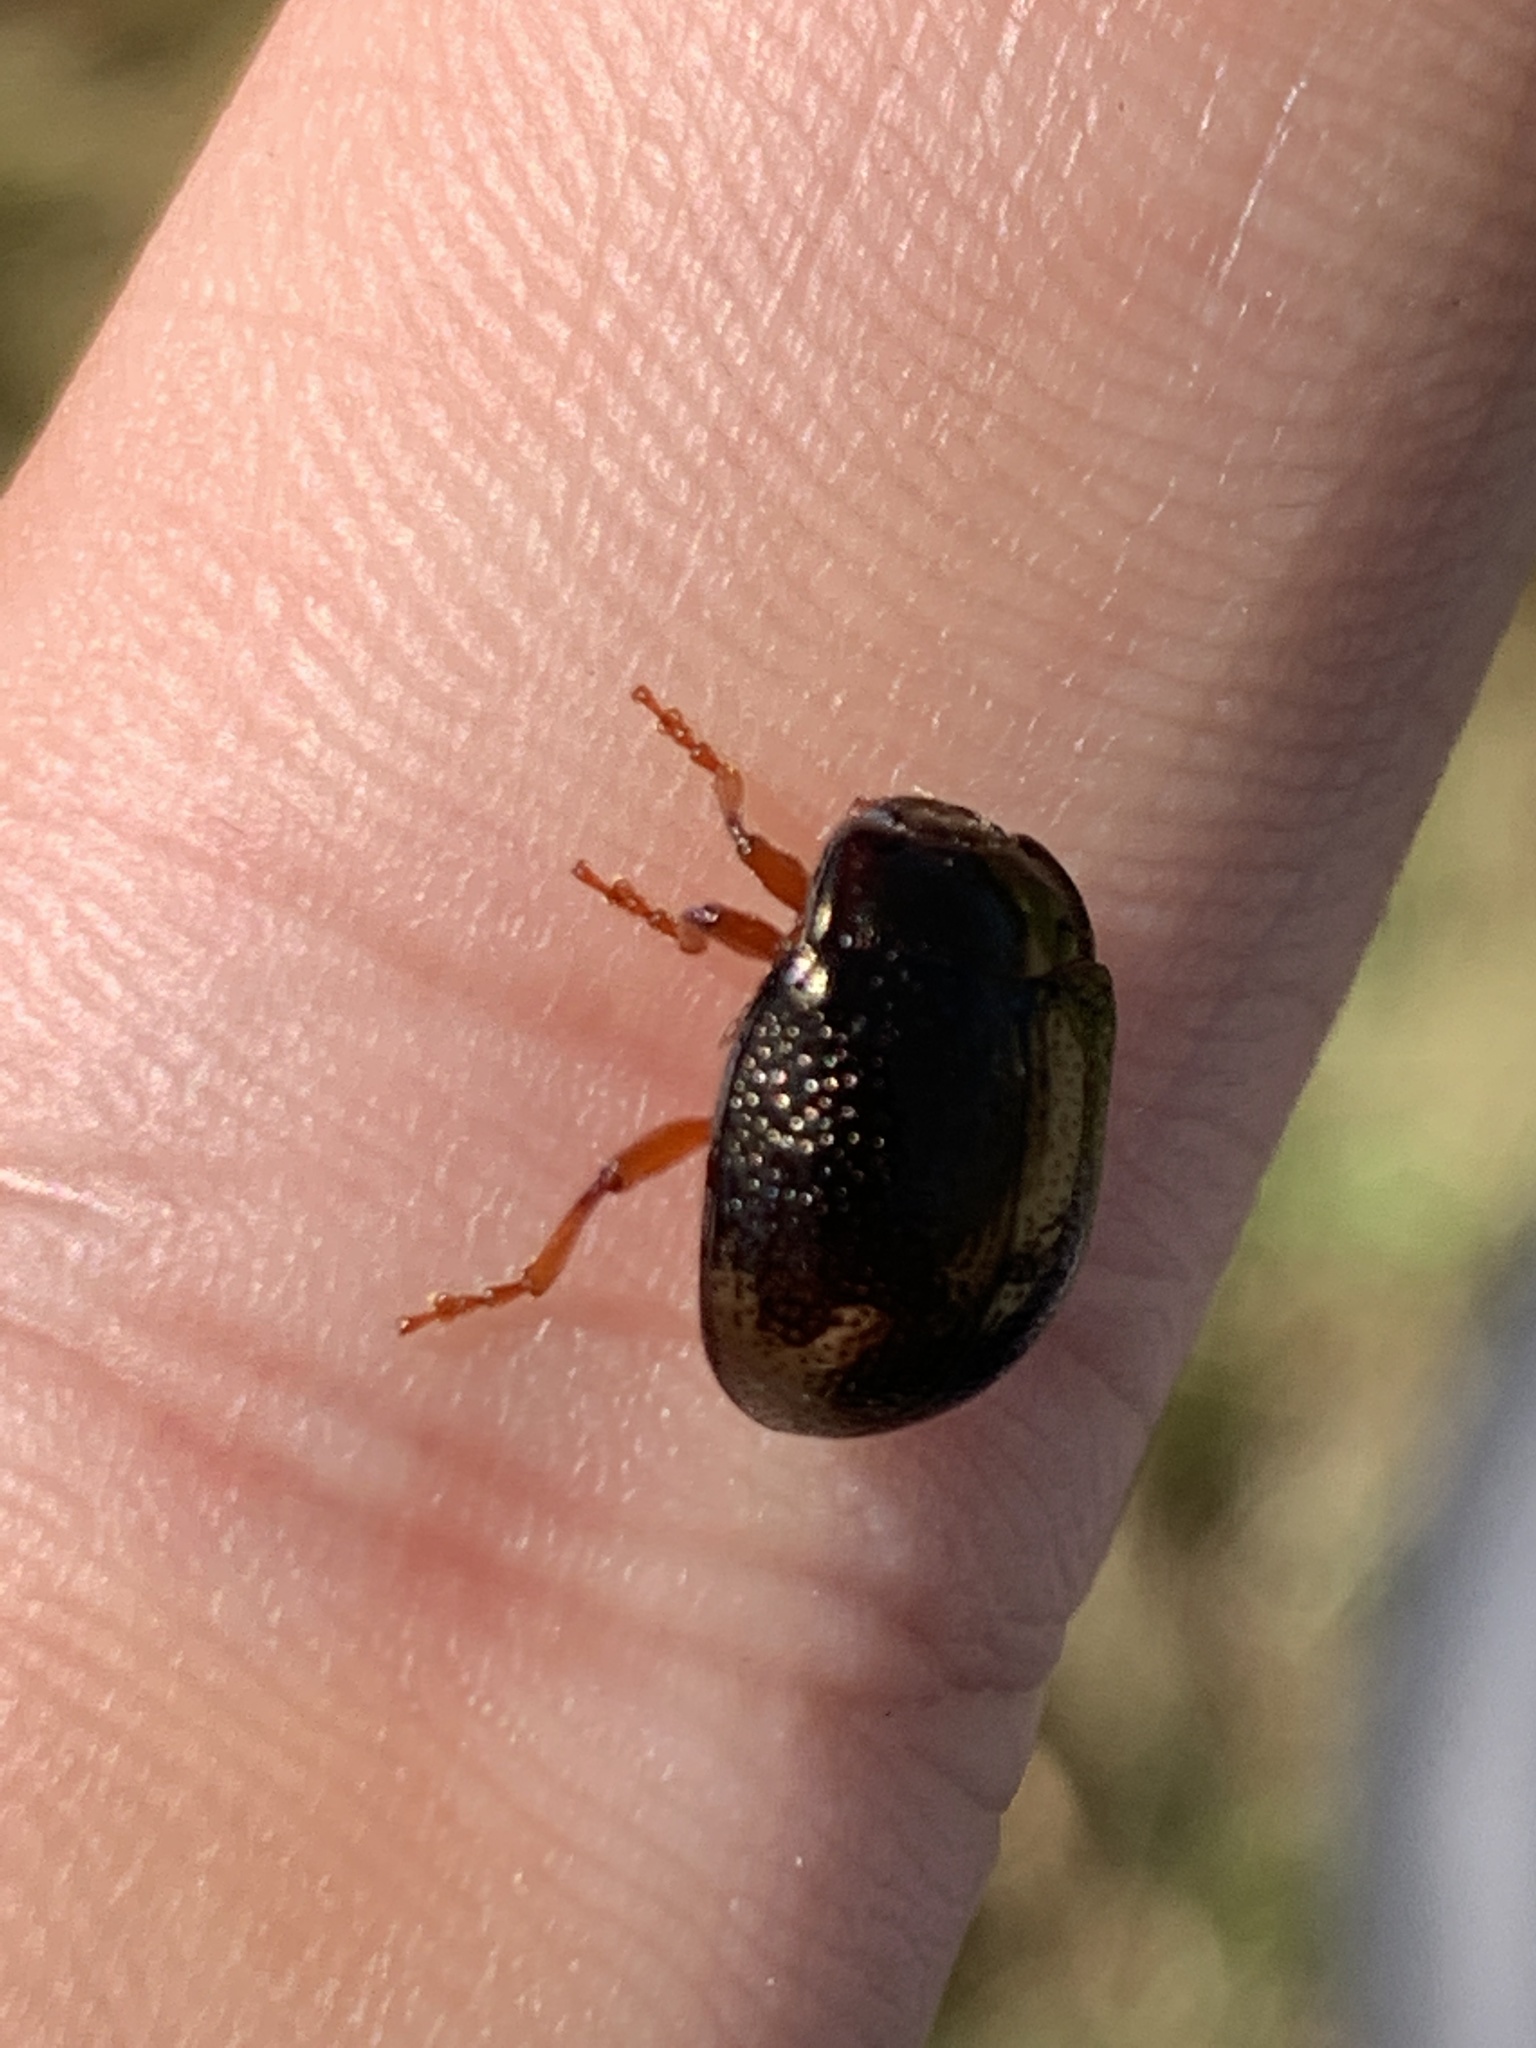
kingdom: Animalia
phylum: Arthropoda
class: Insecta
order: Coleoptera
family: Chrysomelidae
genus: Chrysolina
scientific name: Chrysolina bankii
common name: Leaf beetle
